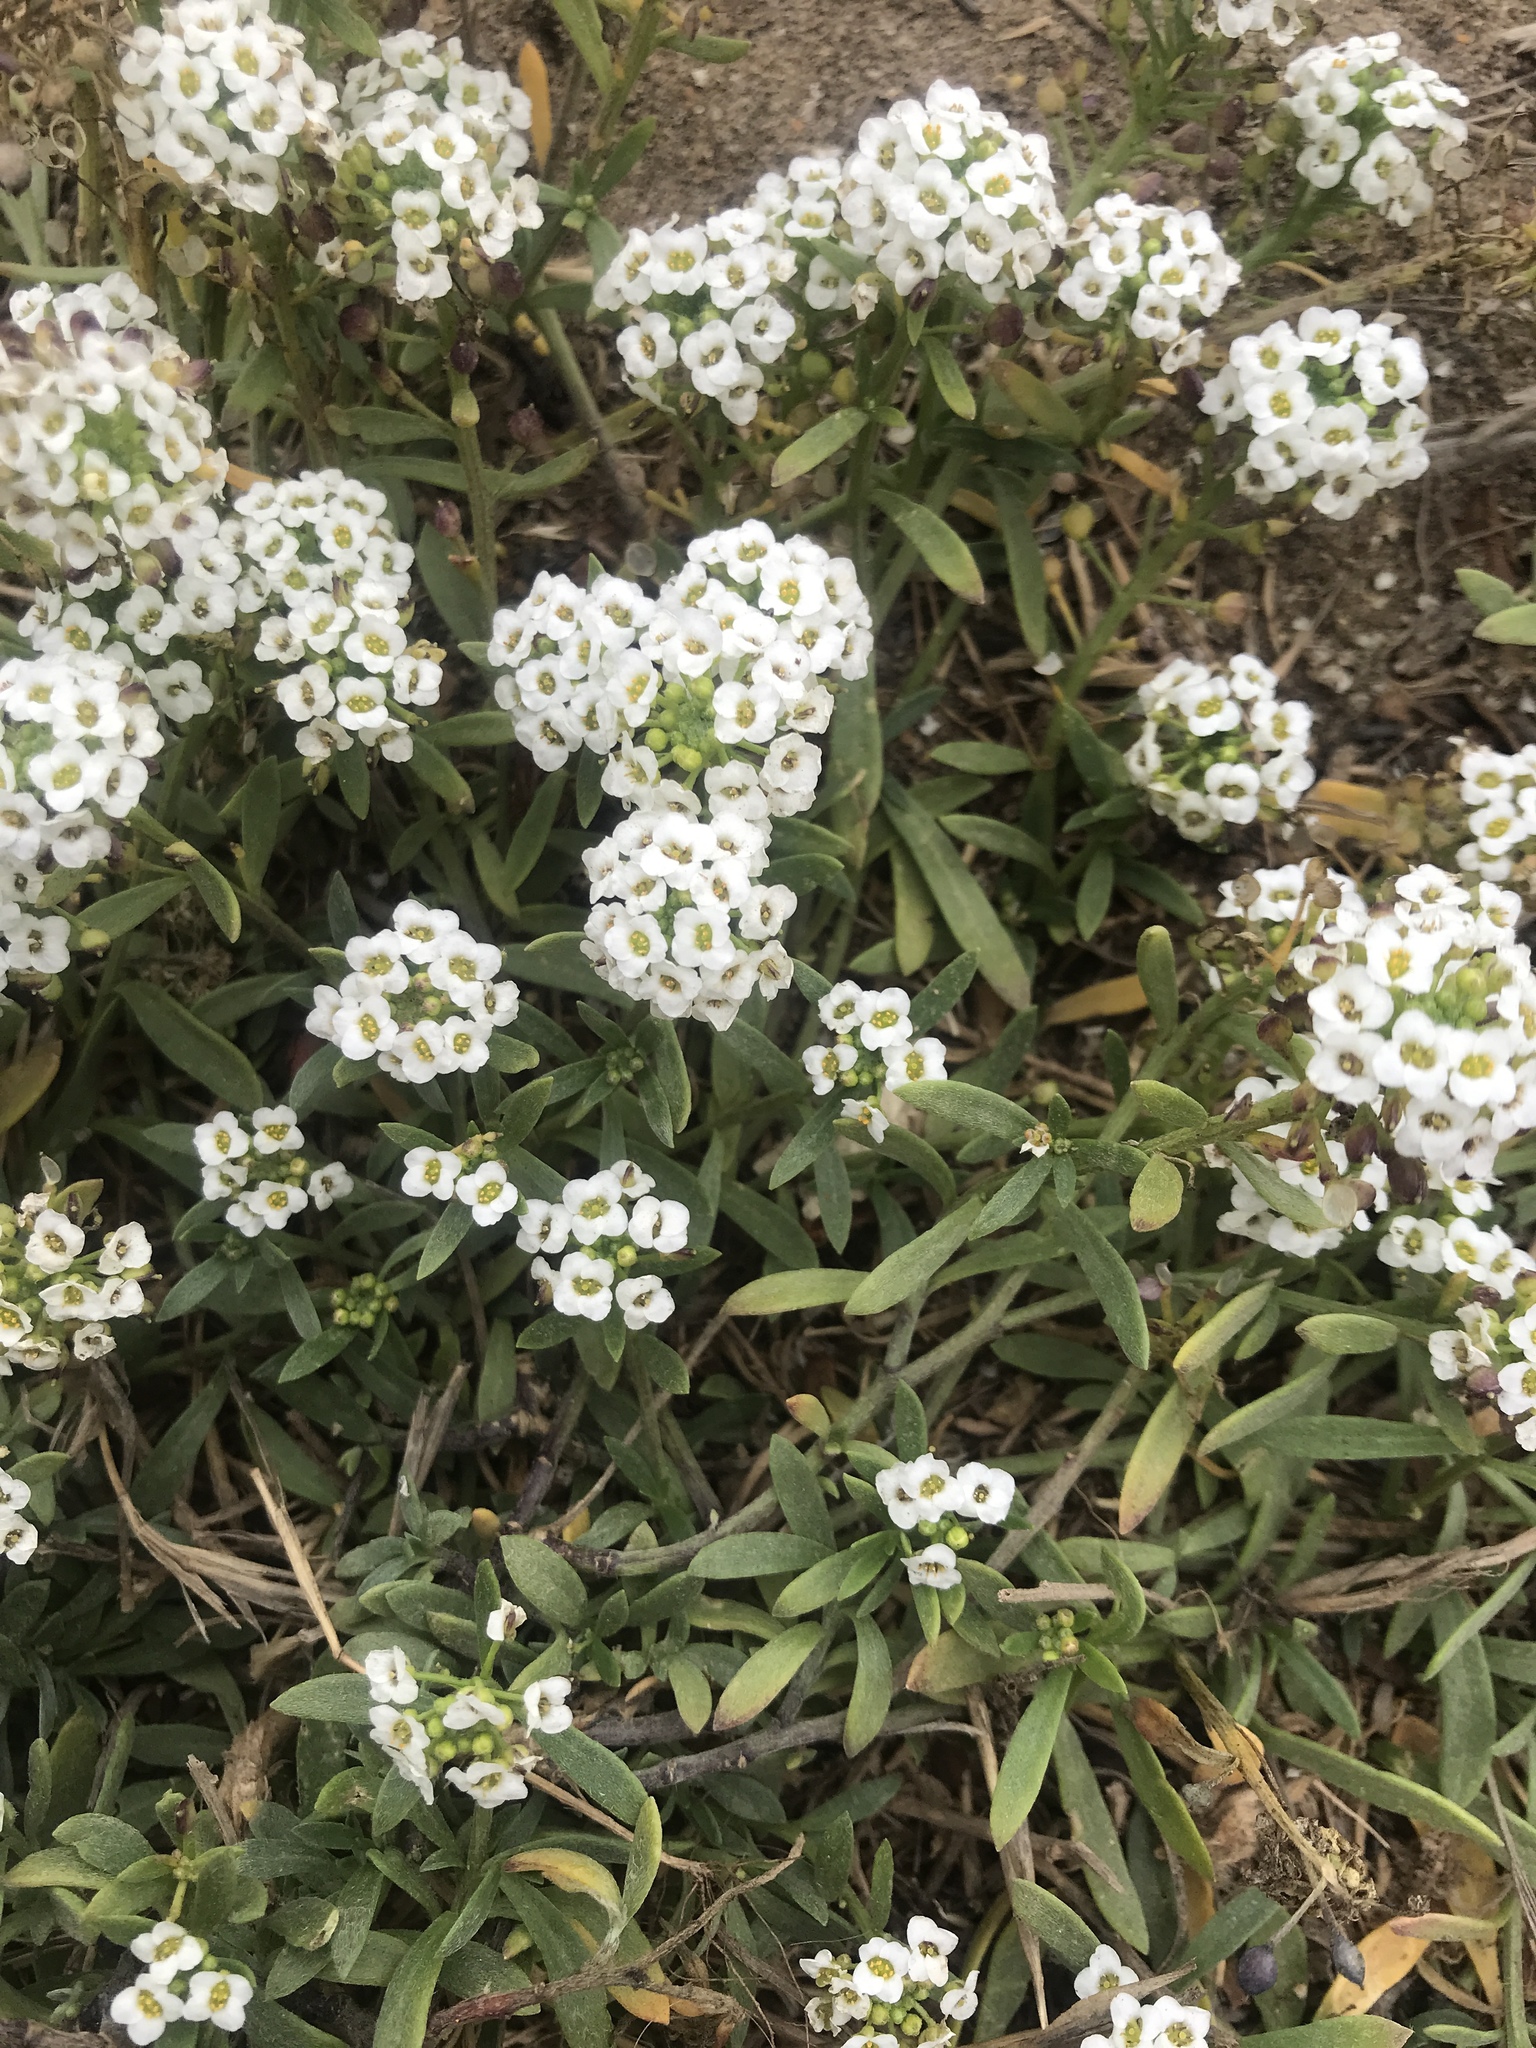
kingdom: Plantae
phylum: Tracheophyta
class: Magnoliopsida
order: Brassicales
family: Brassicaceae
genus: Lobularia
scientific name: Lobularia maritima
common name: Sweet alison
